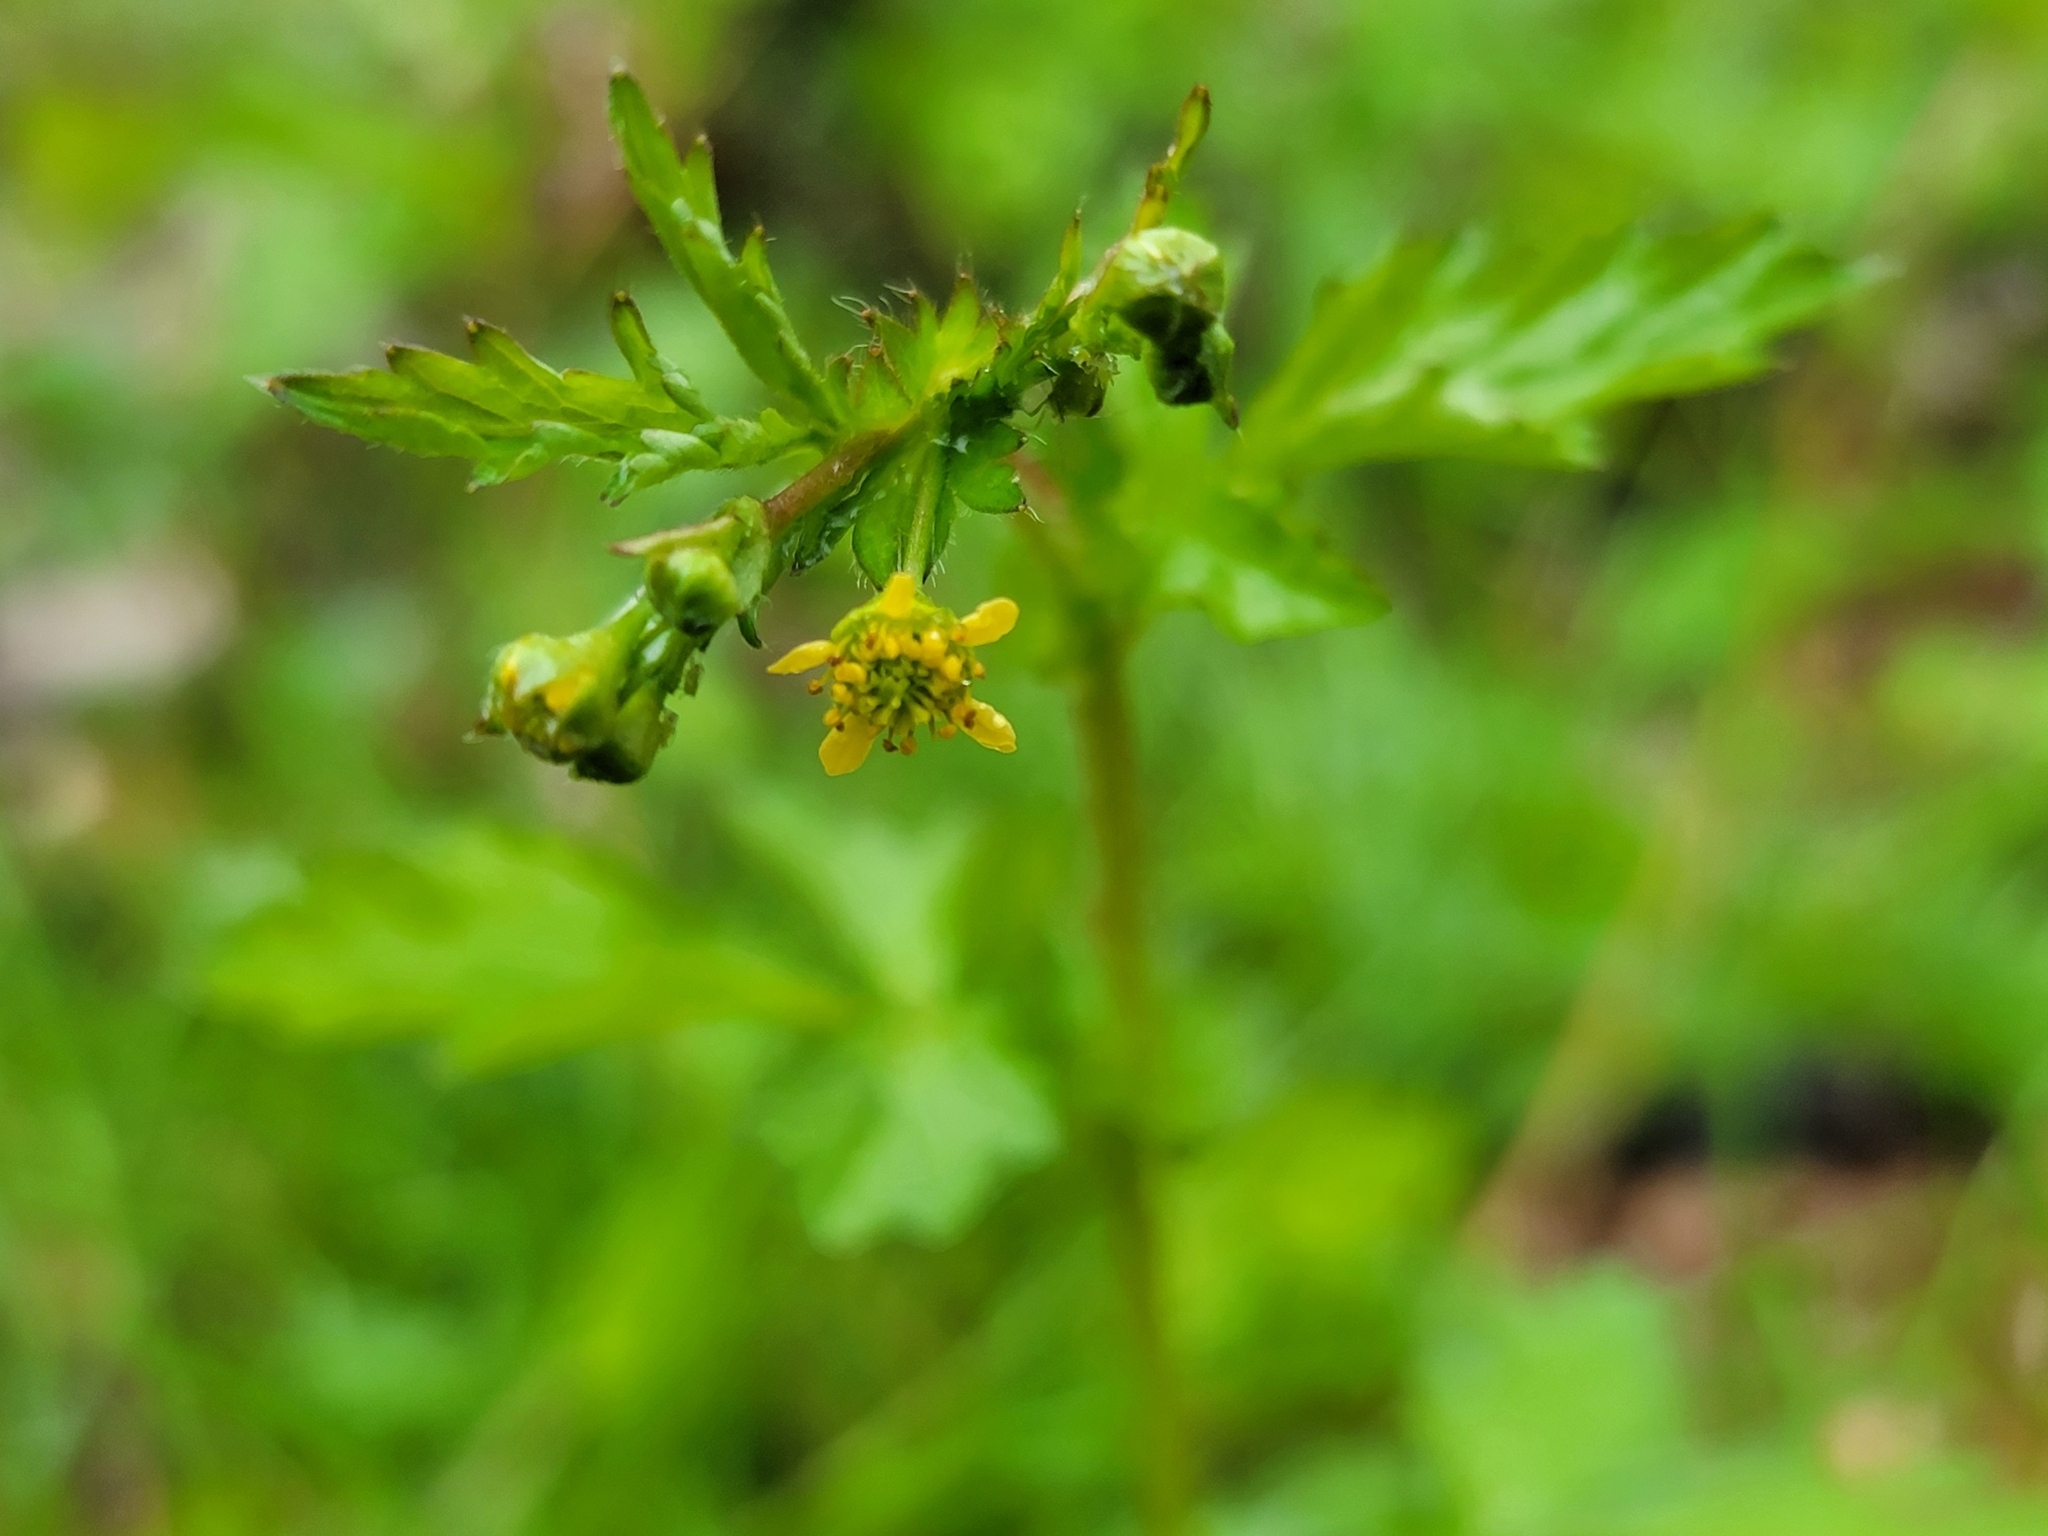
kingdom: Plantae
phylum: Tracheophyta
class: Magnoliopsida
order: Rosales
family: Rosaceae
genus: Geum
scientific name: Geum vernum
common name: Spring avens
